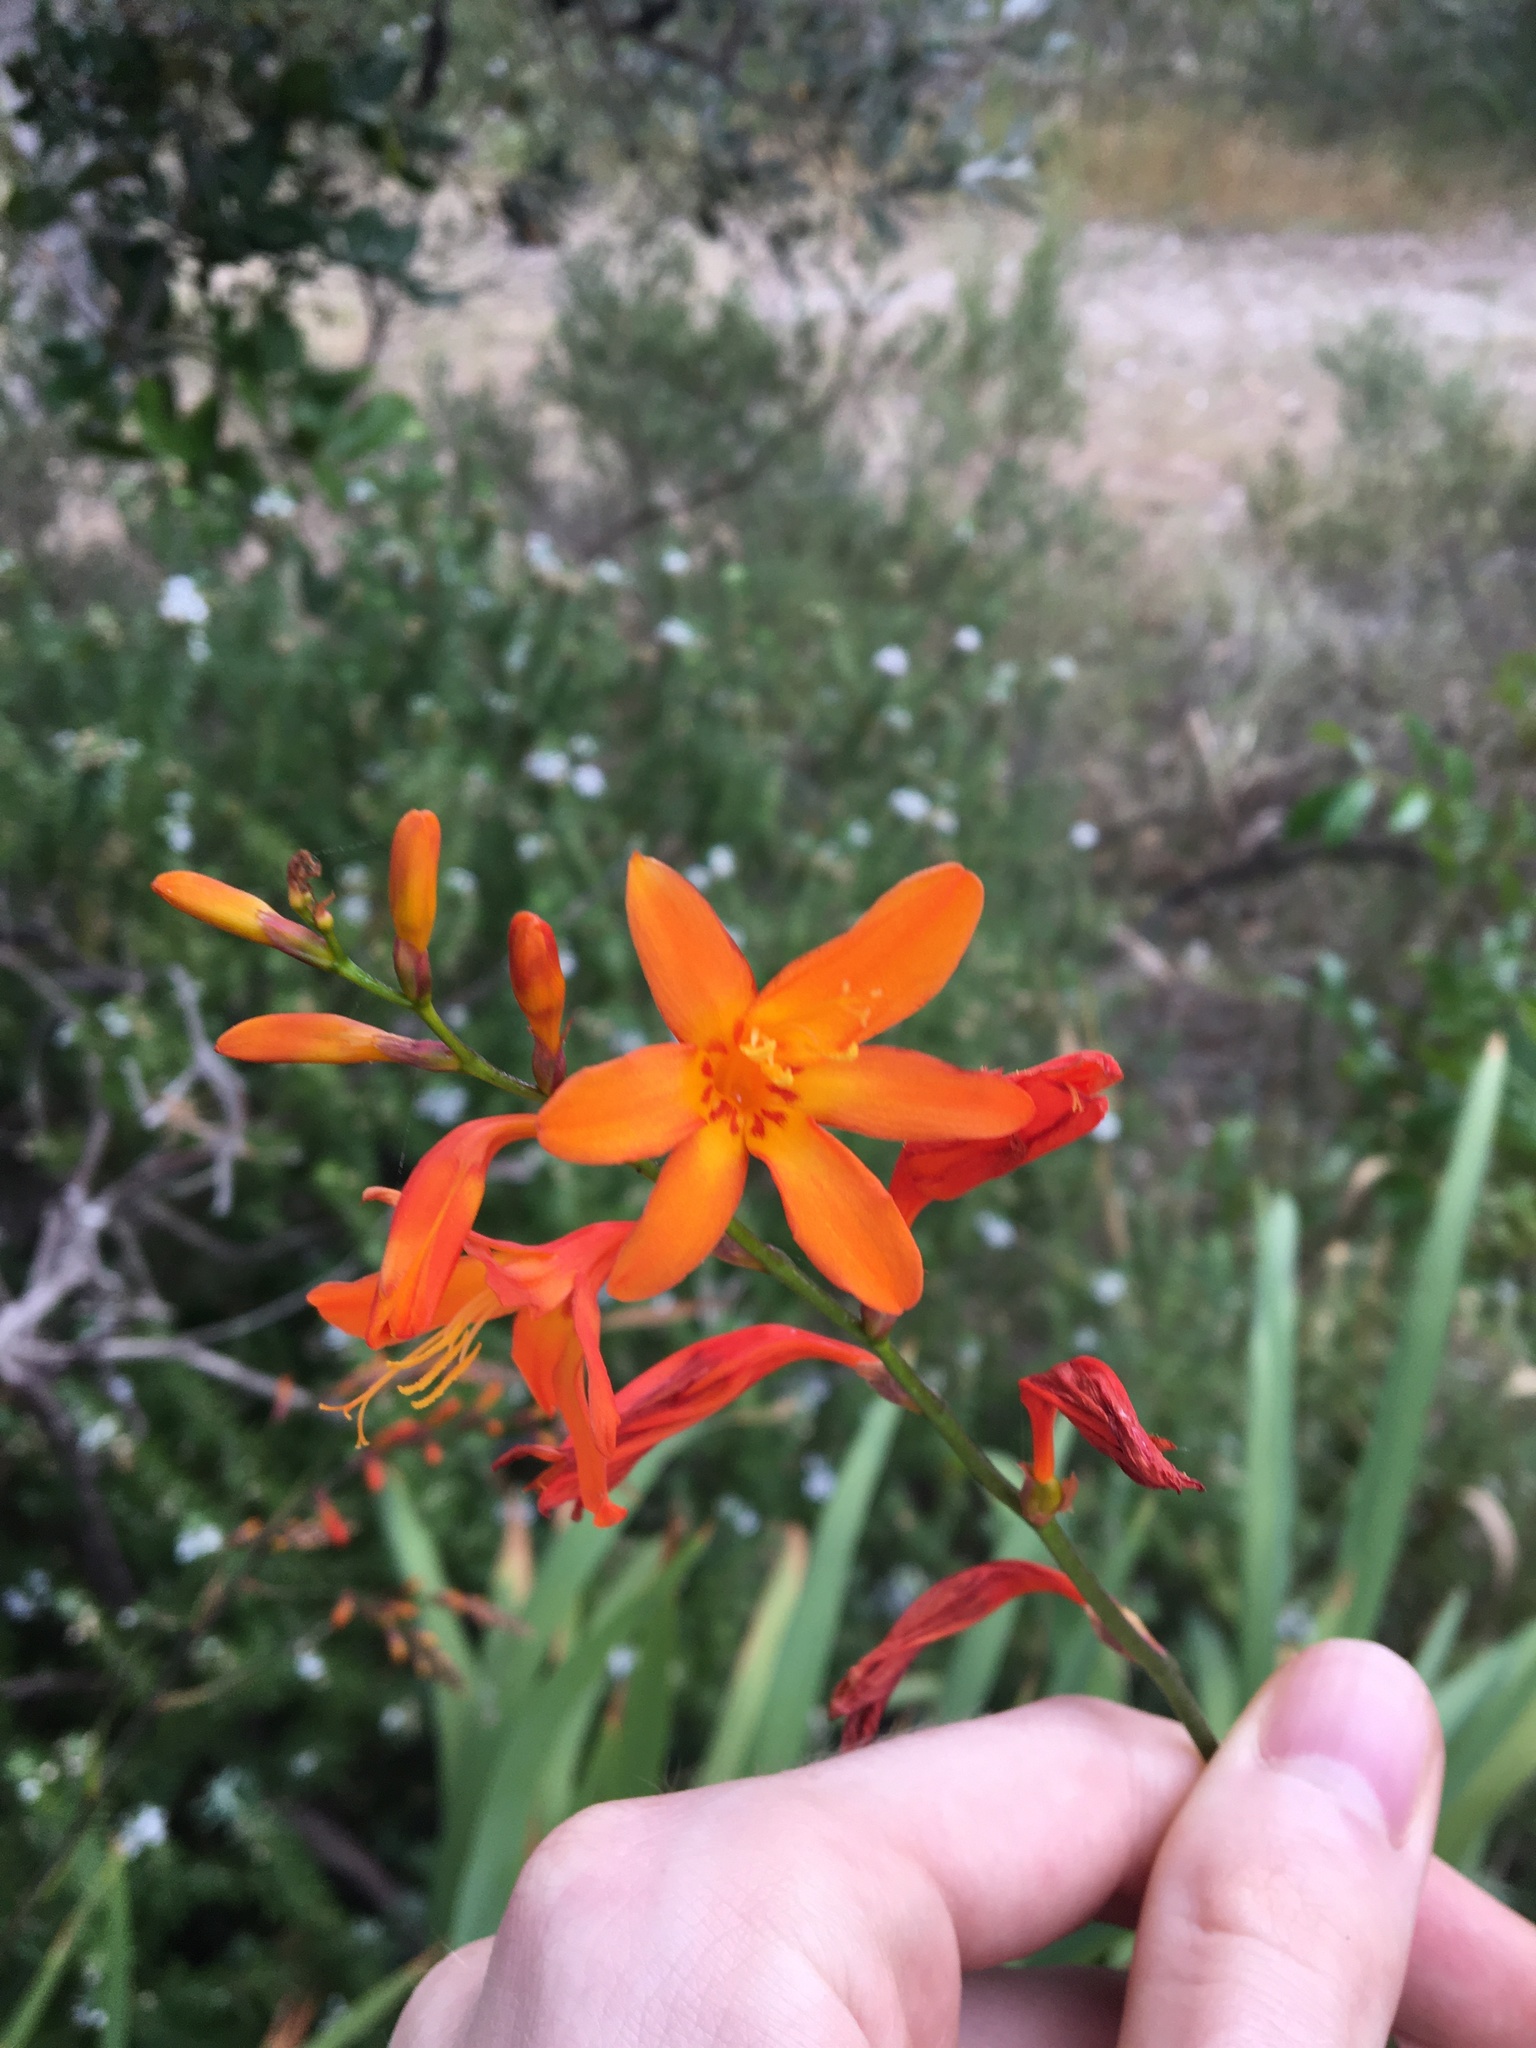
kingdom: Plantae
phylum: Tracheophyta
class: Liliopsida
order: Asparagales
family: Iridaceae
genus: Crocosmia
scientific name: Crocosmia crocosmiiflora
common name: Montbretia
